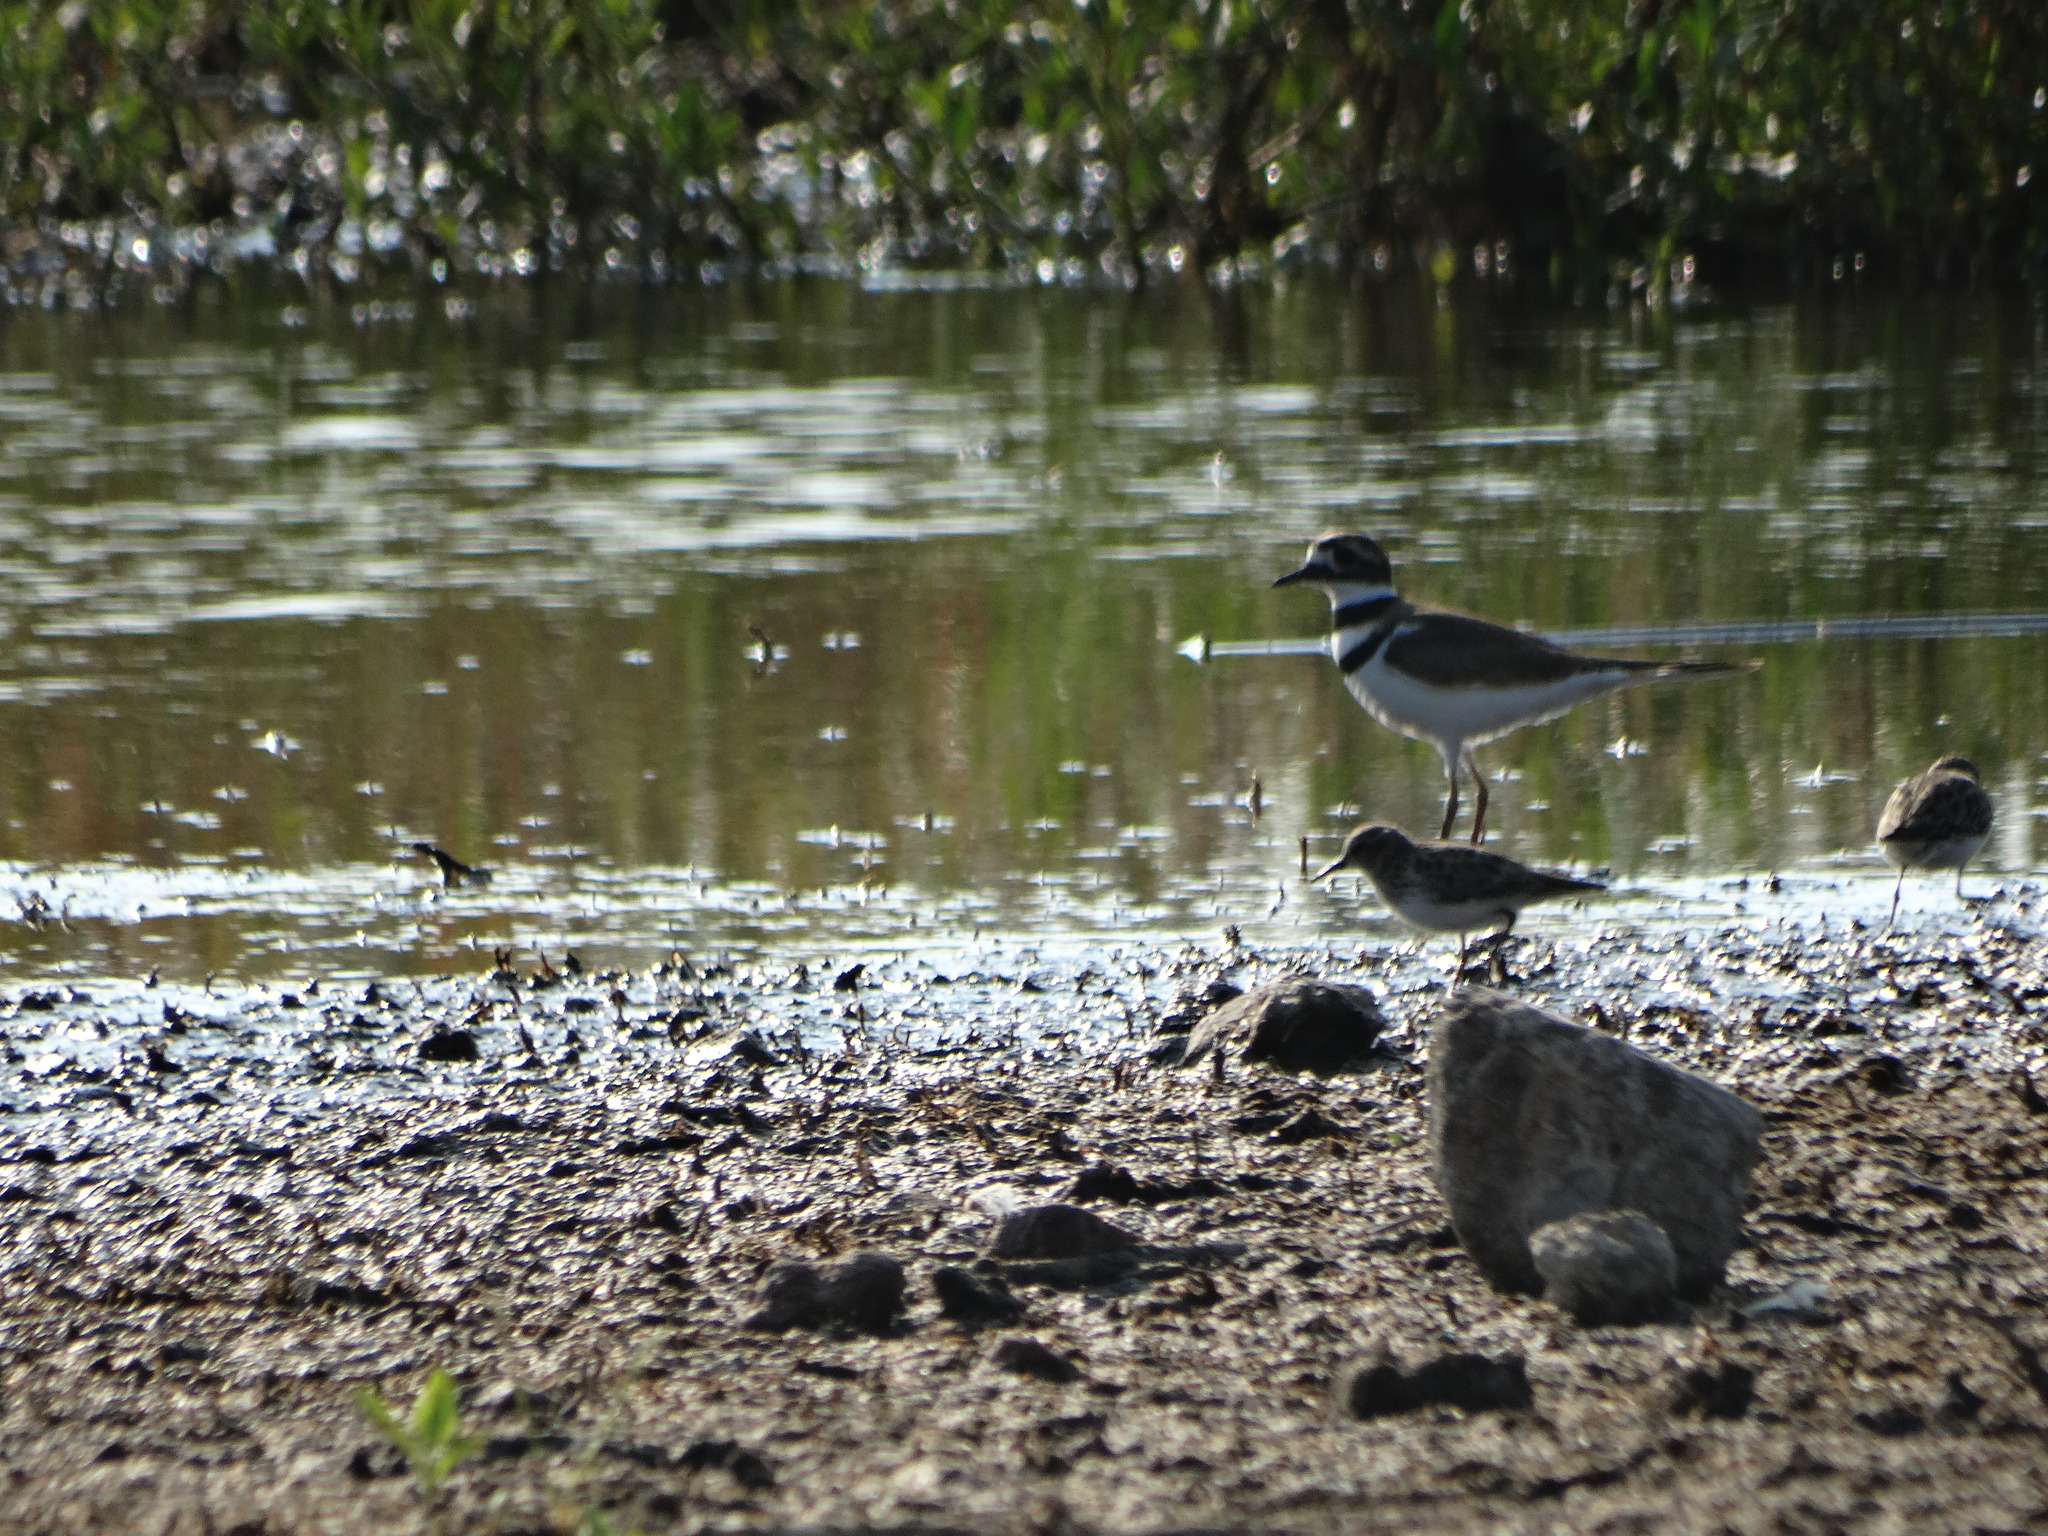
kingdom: Animalia
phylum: Chordata
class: Aves
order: Charadriiformes
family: Charadriidae
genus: Charadrius
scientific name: Charadrius vociferus
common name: Killdeer
